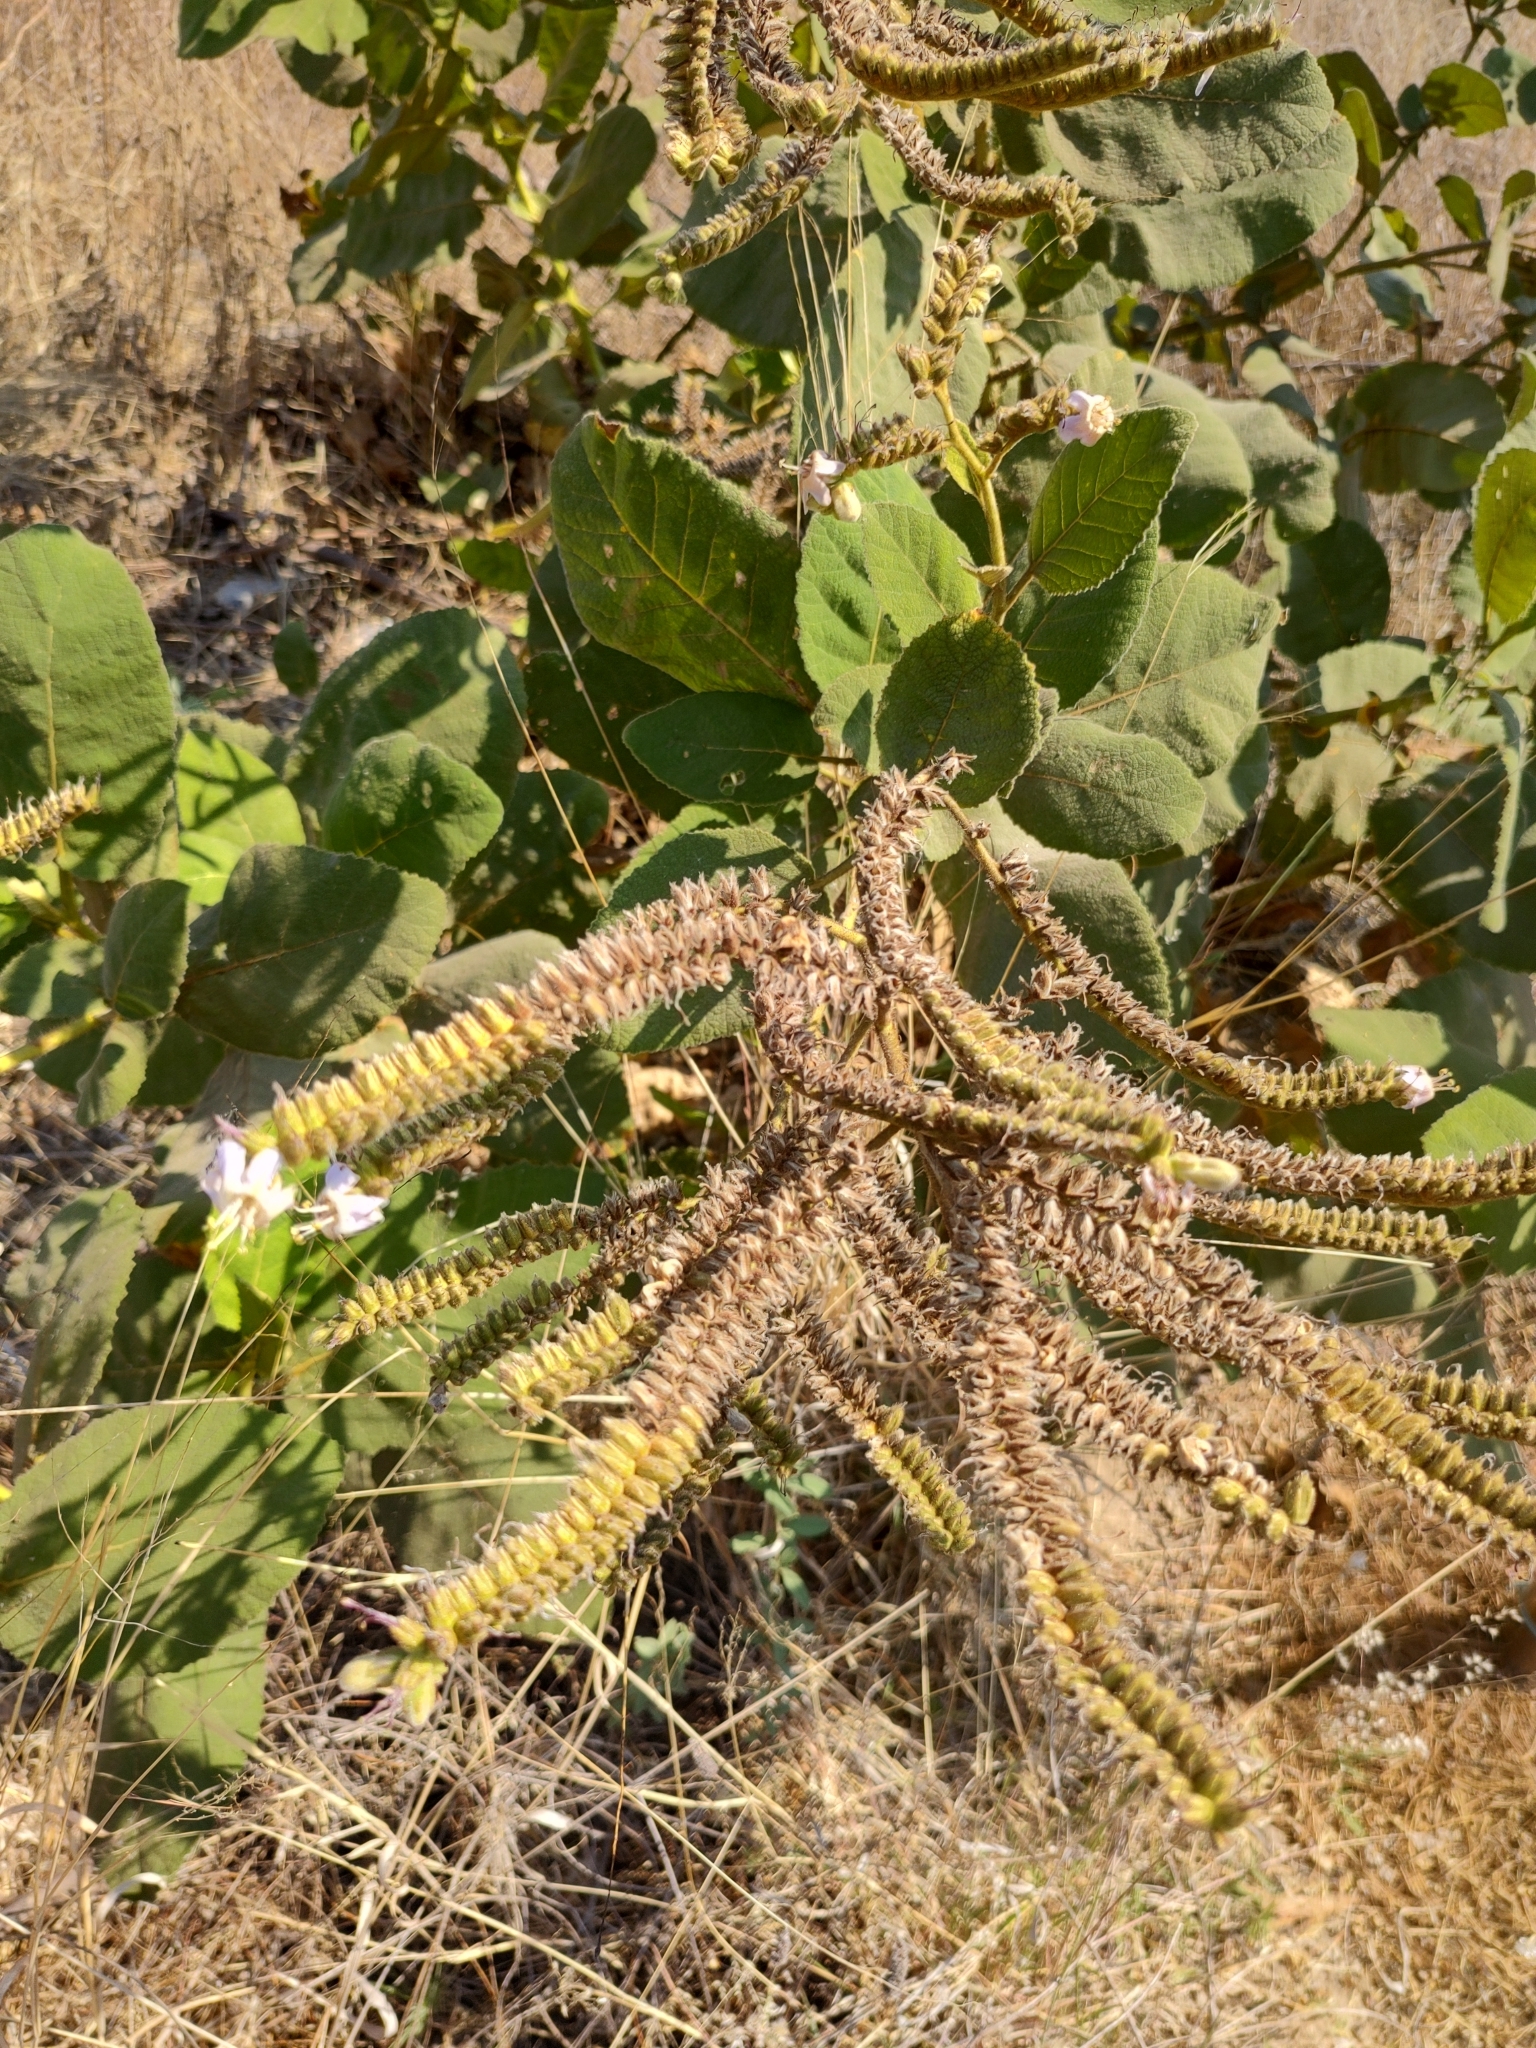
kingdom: Plantae
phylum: Tracheophyta
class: Magnoliopsida
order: Boraginales
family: Namaceae
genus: Wigandia
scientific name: Wigandia urens
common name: Caracus wigandia
